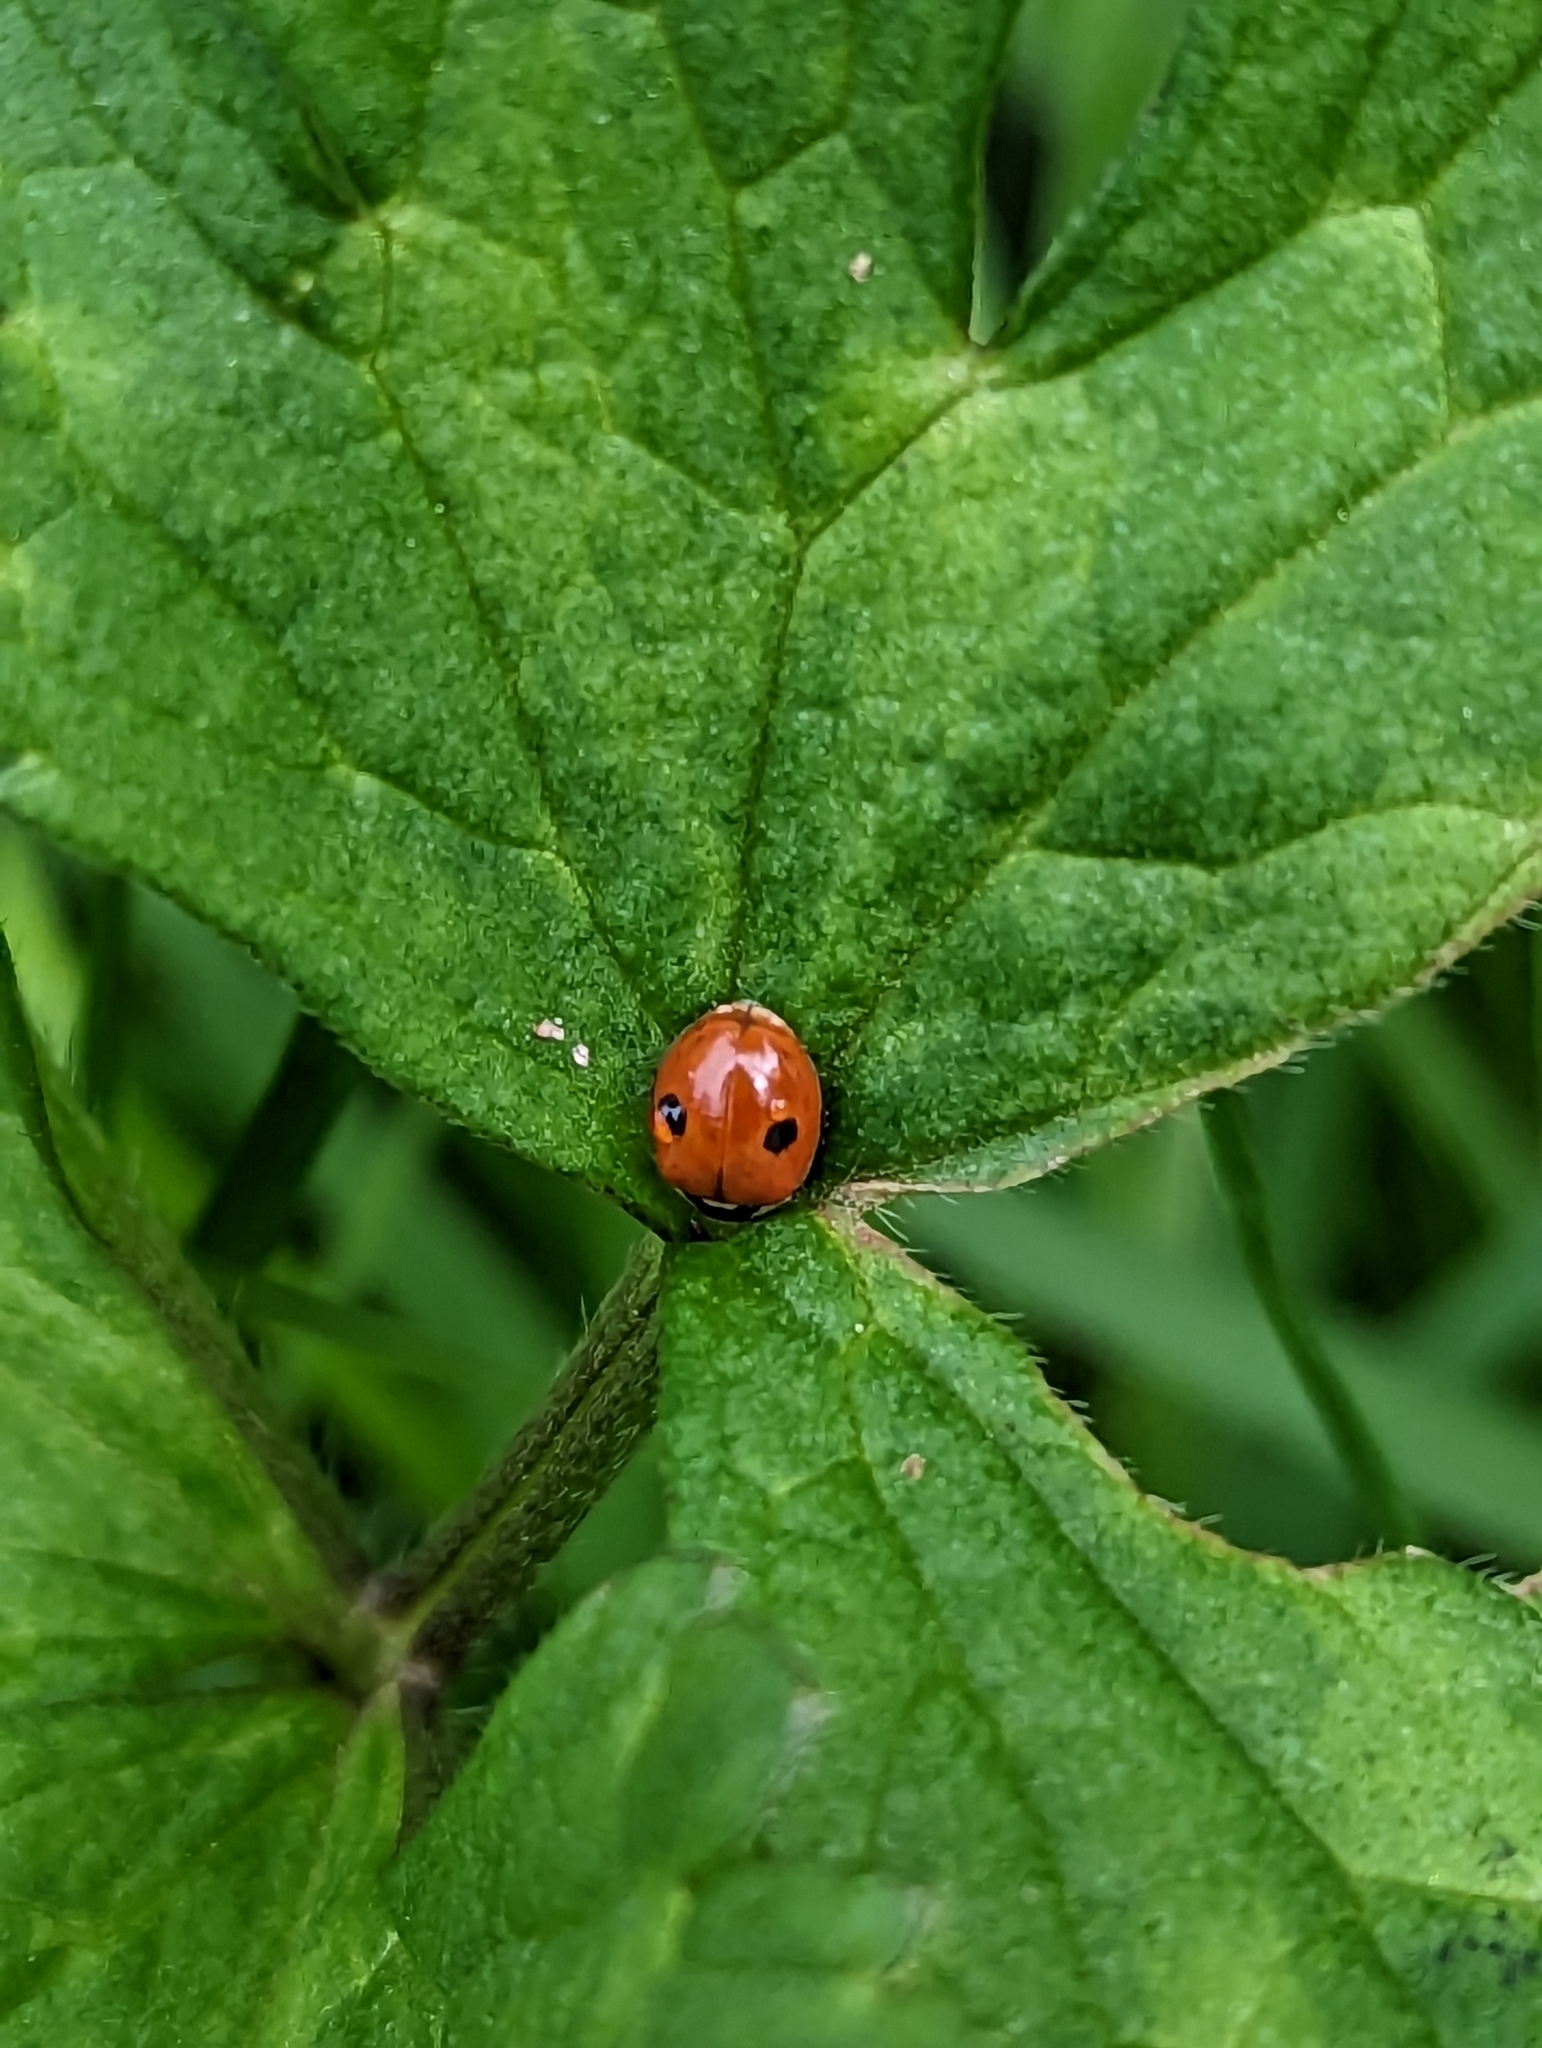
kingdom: Animalia
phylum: Arthropoda
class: Insecta
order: Coleoptera
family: Coccinellidae
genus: Adalia
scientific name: Adalia bipunctata
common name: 2-spot ladybird
